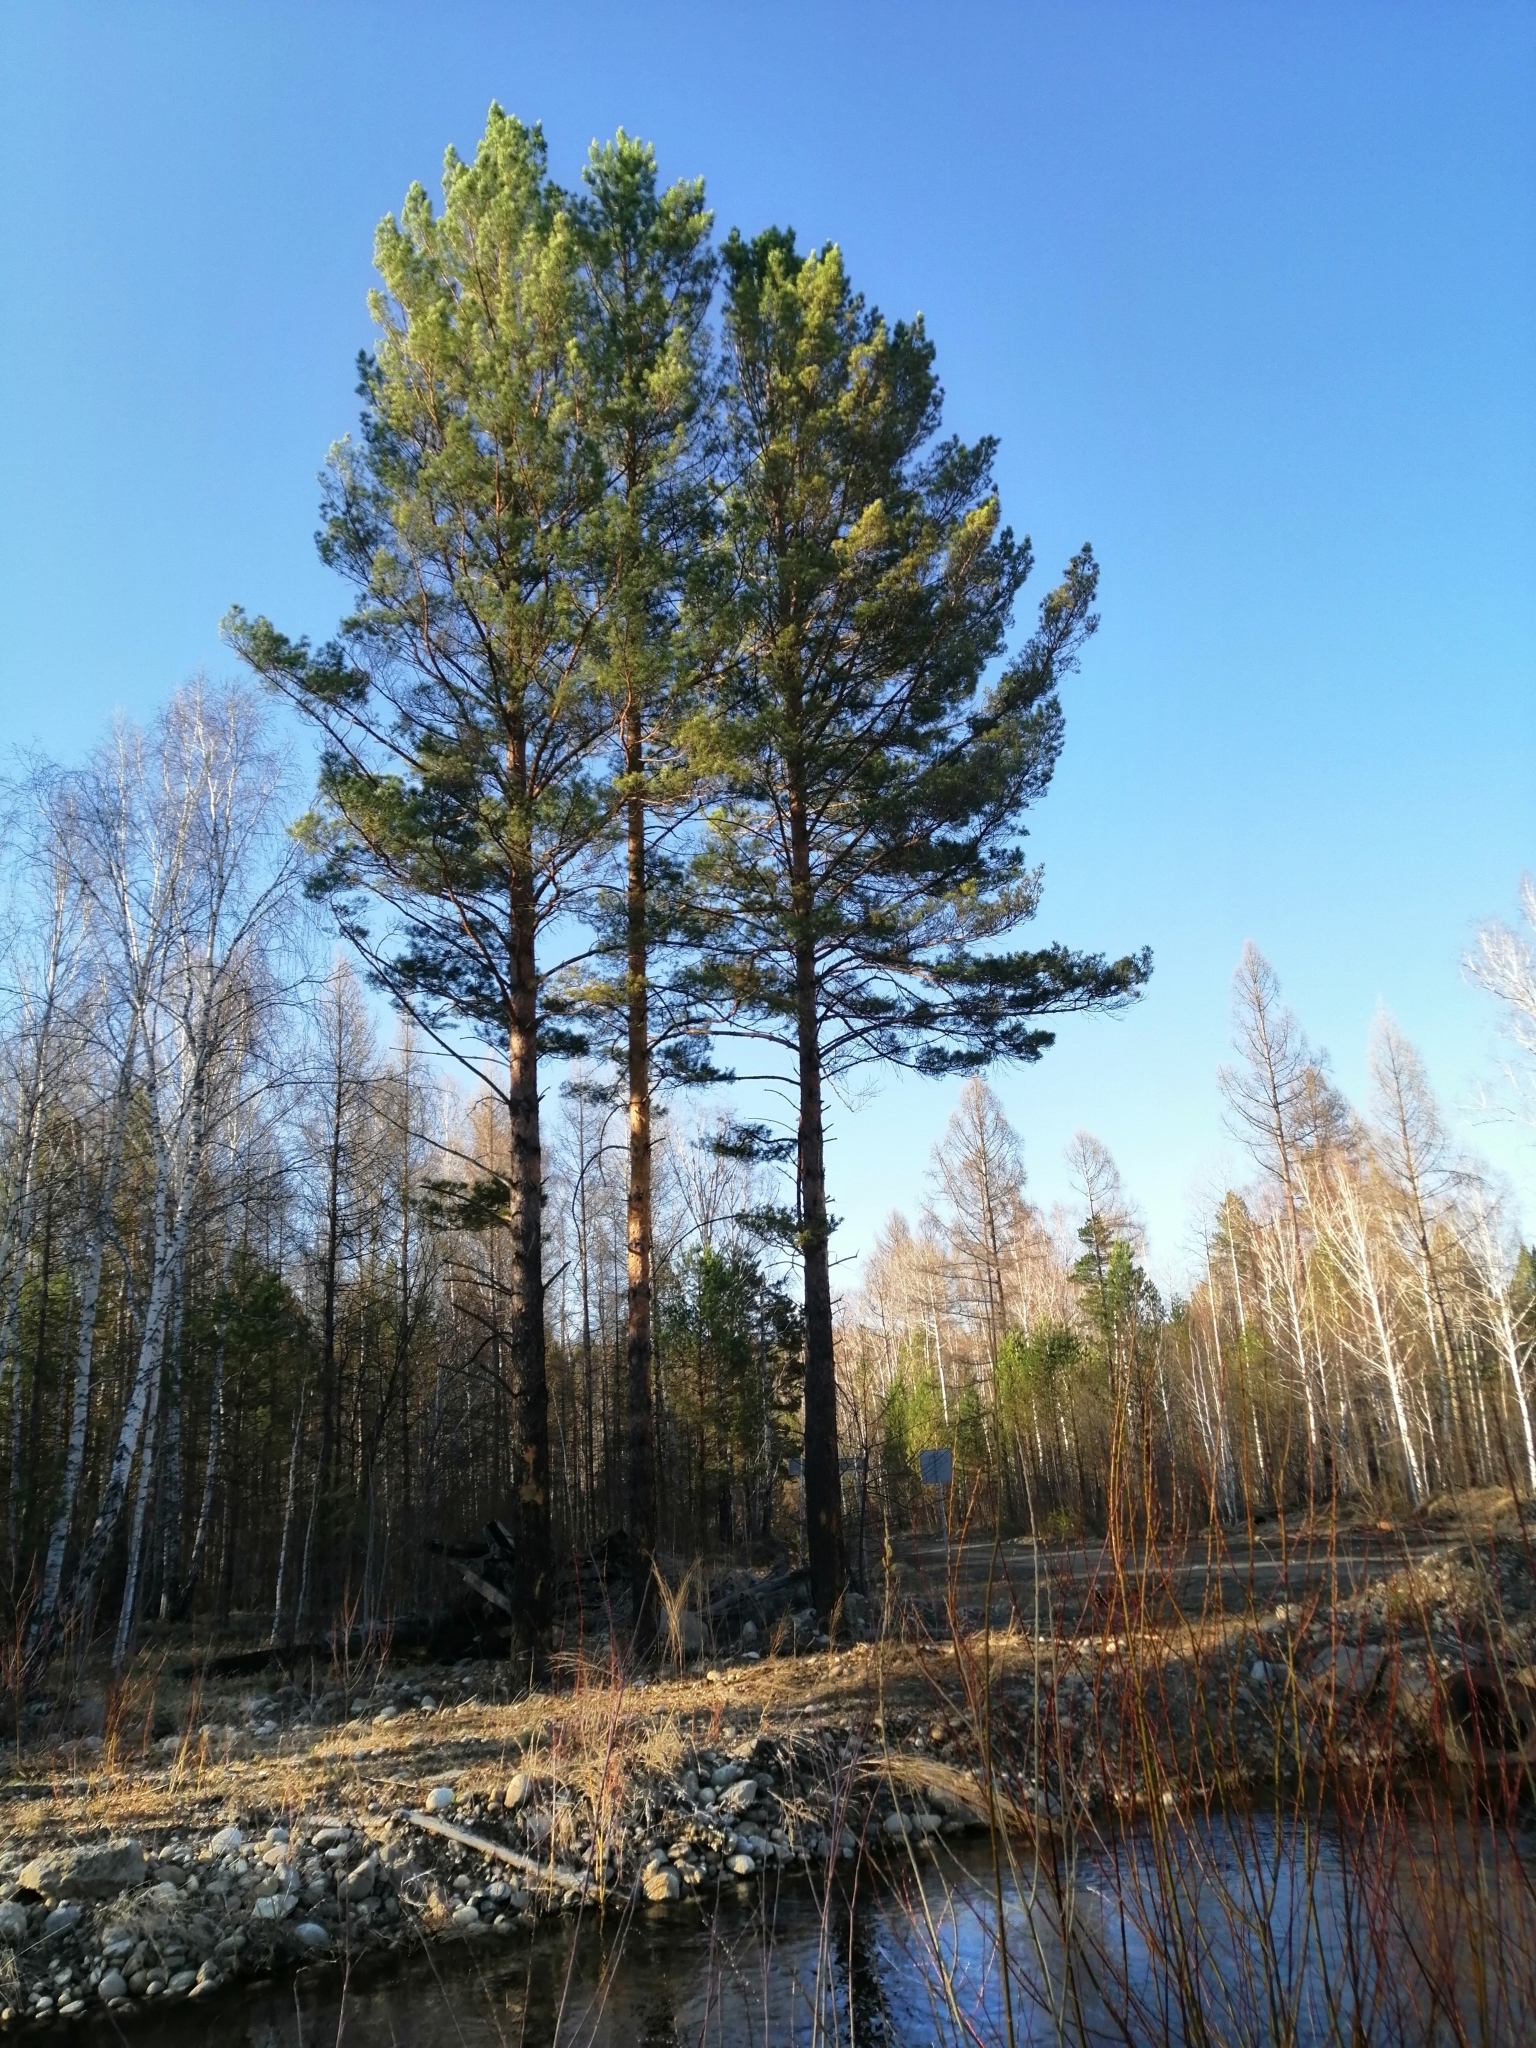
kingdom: Plantae
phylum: Tracheophyta
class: Pinopsida
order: Pinales
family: Pinaceae
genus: Pinus
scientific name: Pinus sylvestris
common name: Scots pine
